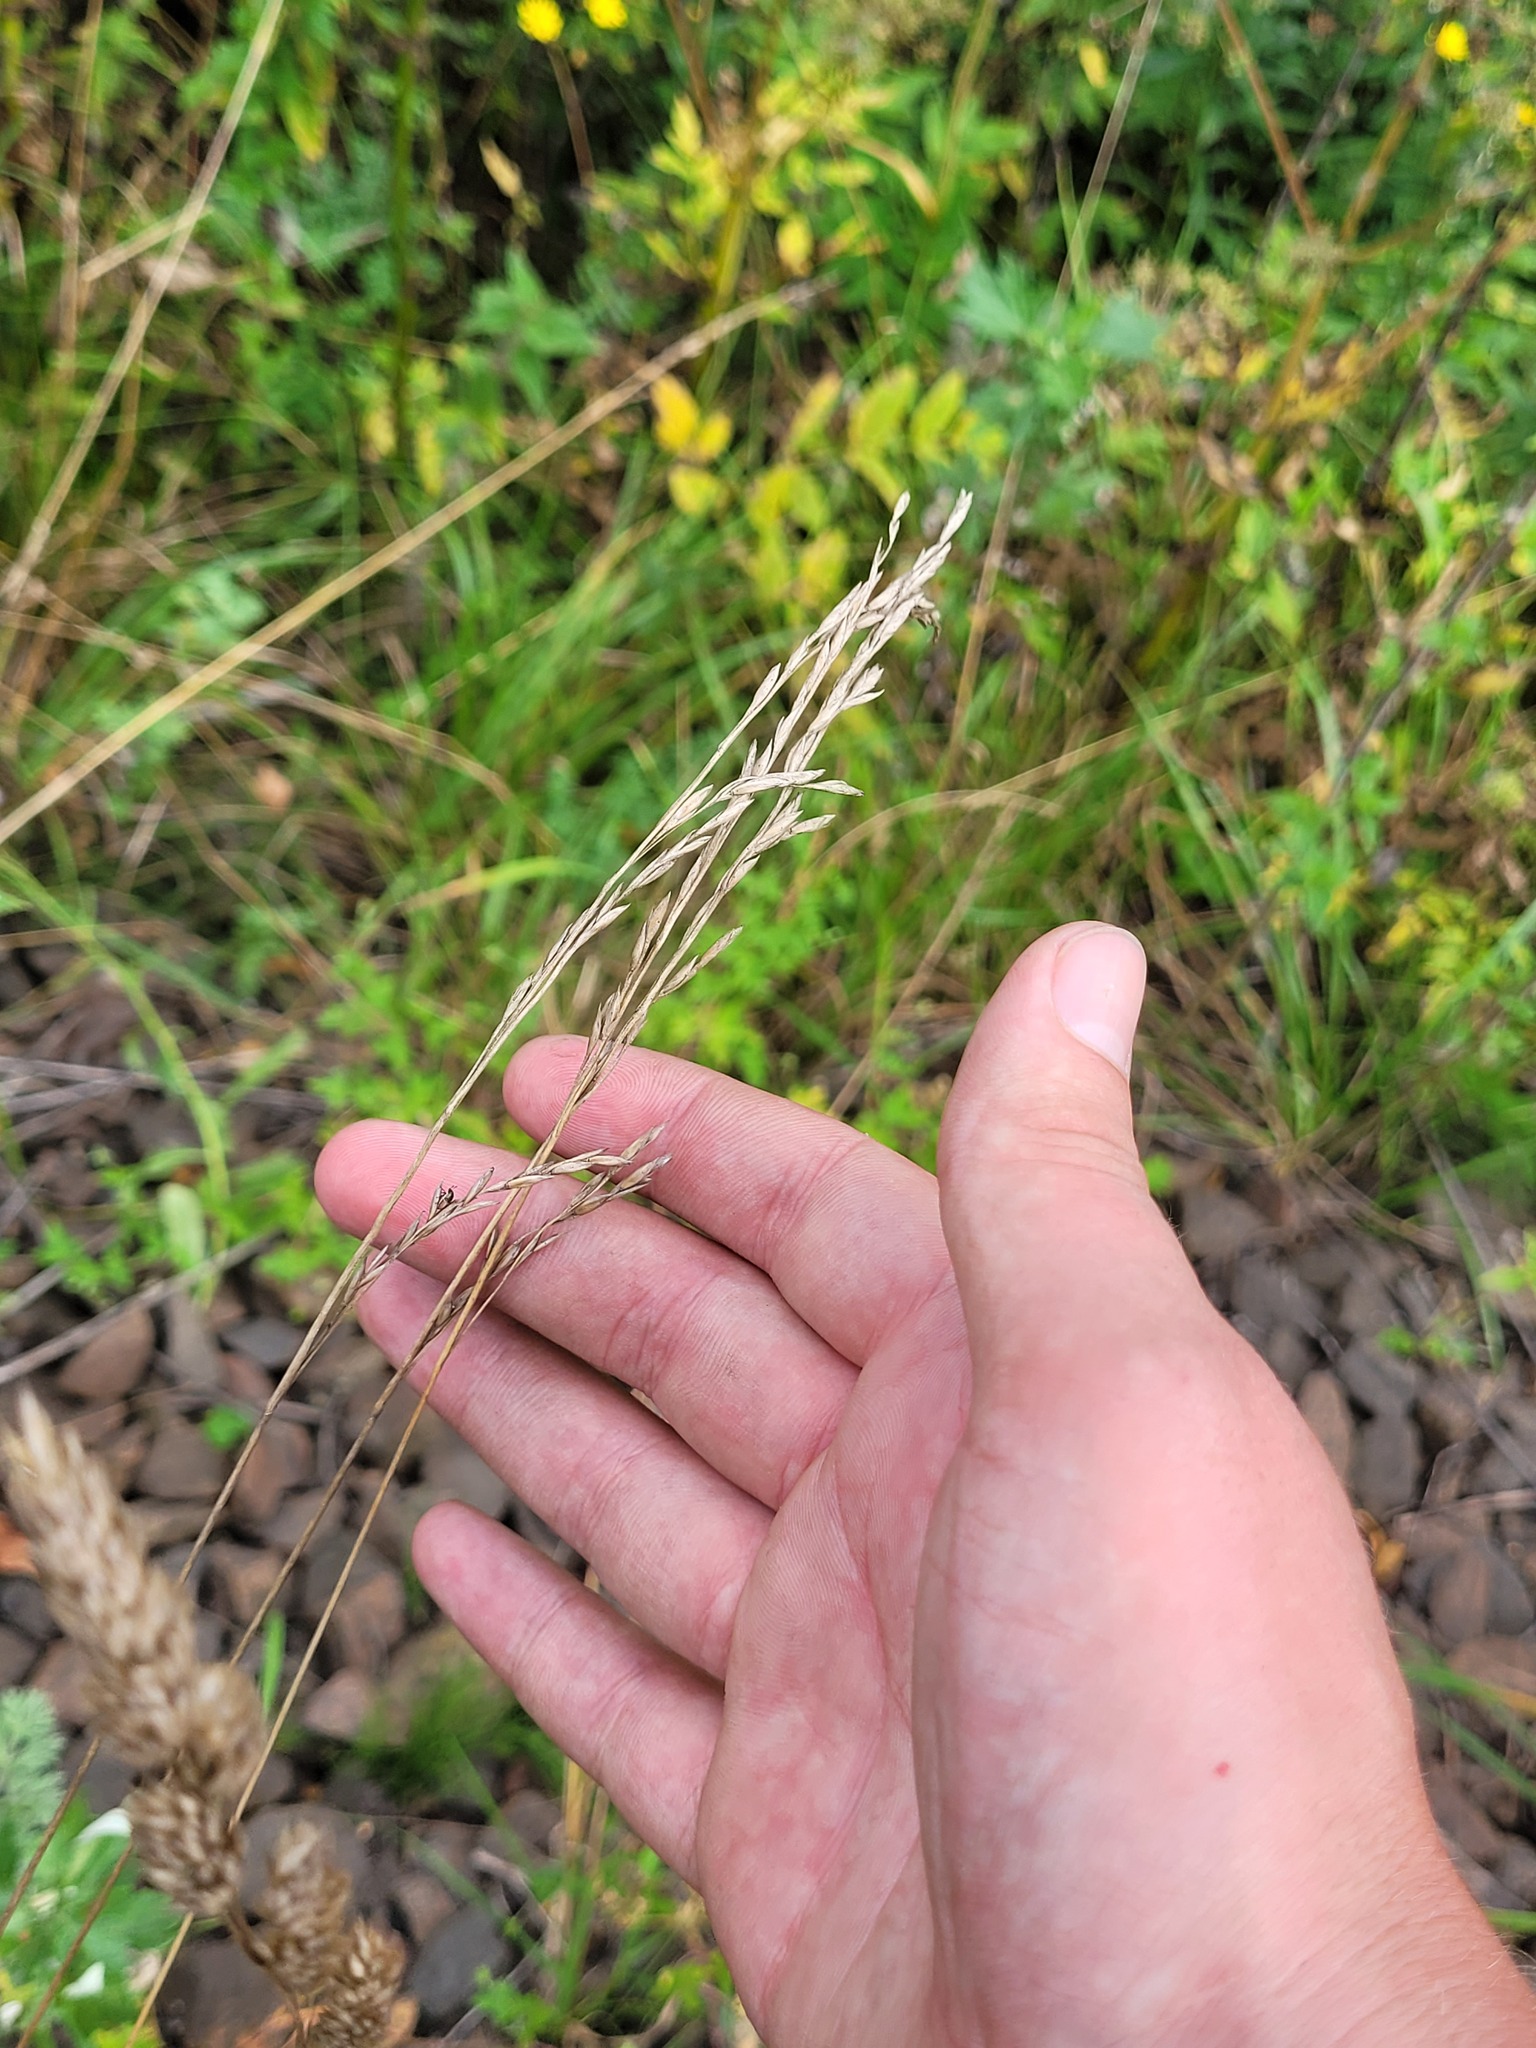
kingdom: Plantae
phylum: Tracheophyta
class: Liliopsida
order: Poales
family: Poaceae
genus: Lolium
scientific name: Lolium pratense
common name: Dover grass
